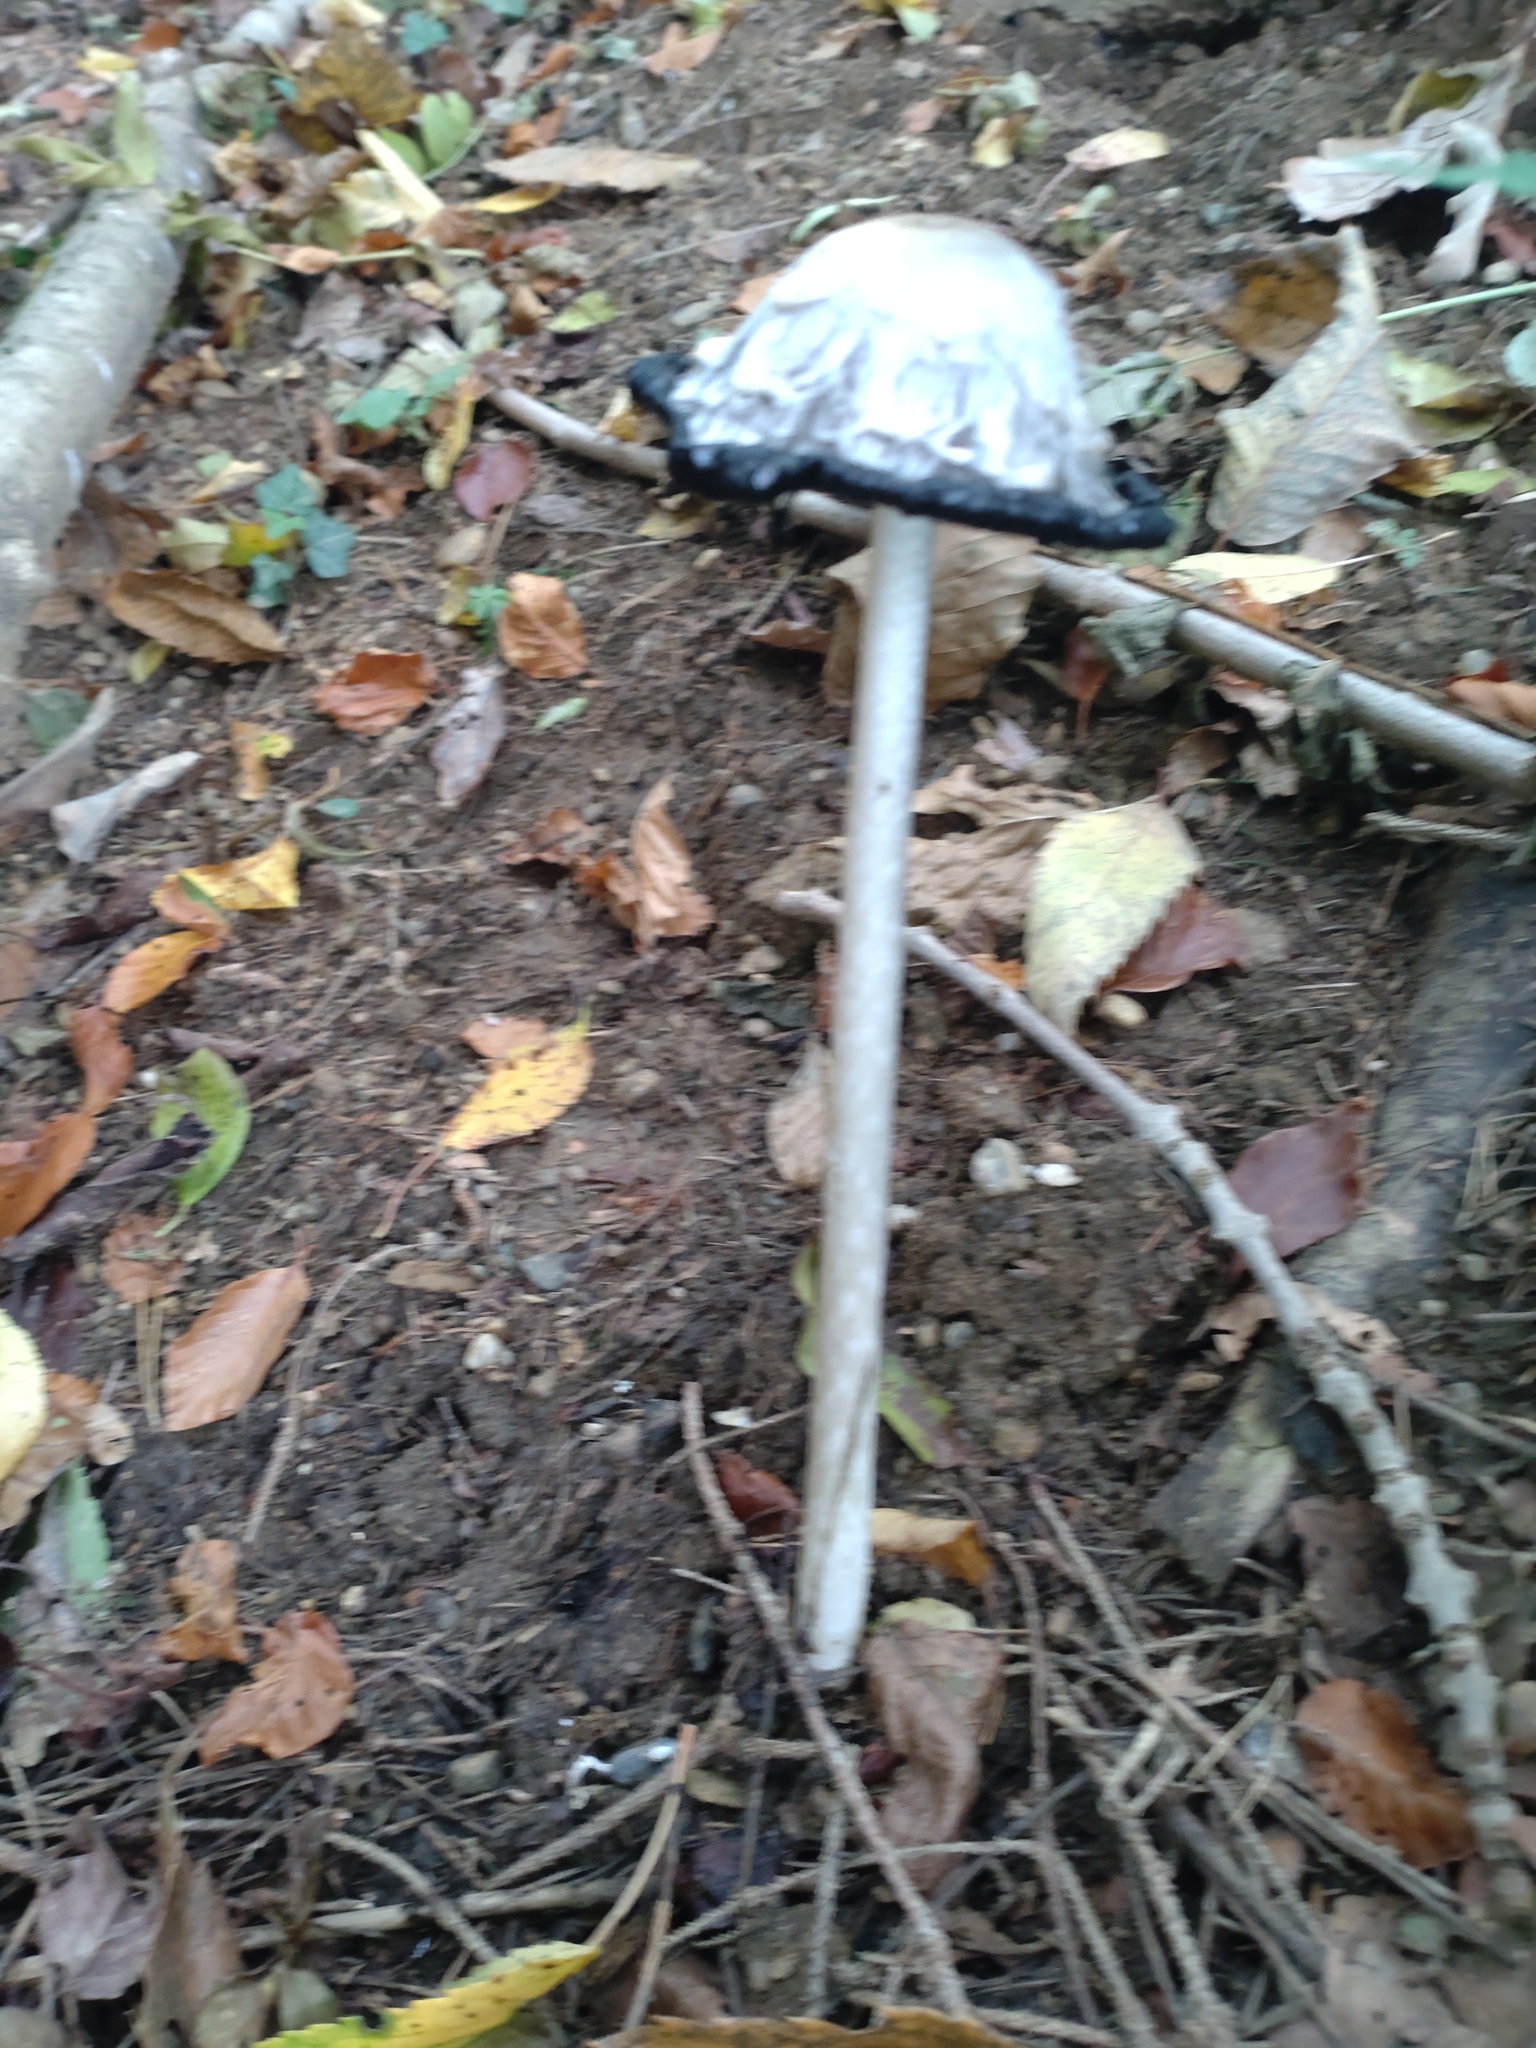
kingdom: Fungi
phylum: Basidiomycota
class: Agaricomycetes
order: Agaricales
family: Agaricaceae
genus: Coprinus
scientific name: Coprinus comatus
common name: Lawyer's wig
